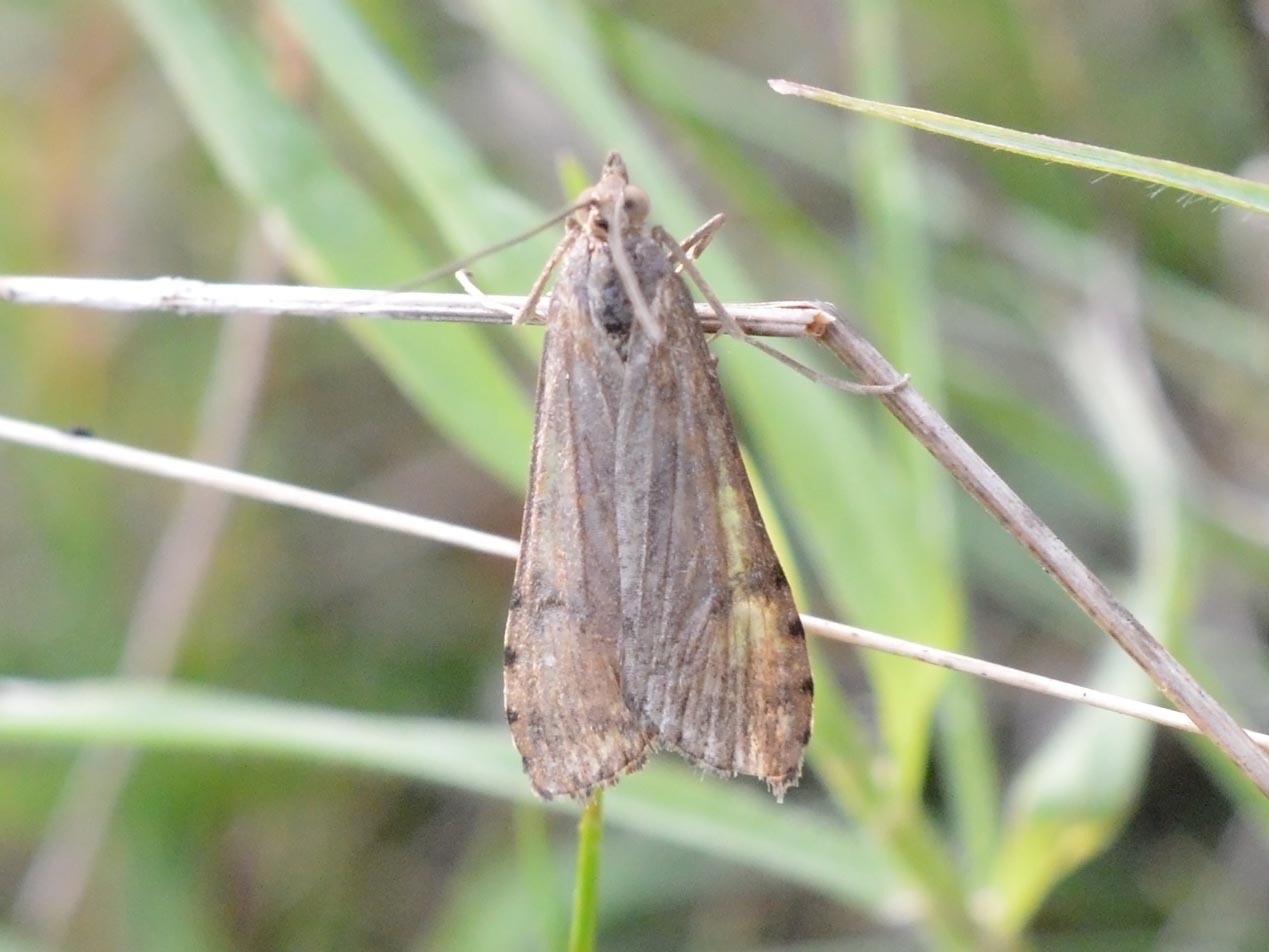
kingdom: Animalia
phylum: Arthropoda
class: Insecta
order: Lepidoptera
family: Crambidae
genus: Nomophila
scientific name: Nomophila noctuella
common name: Rush veneer
